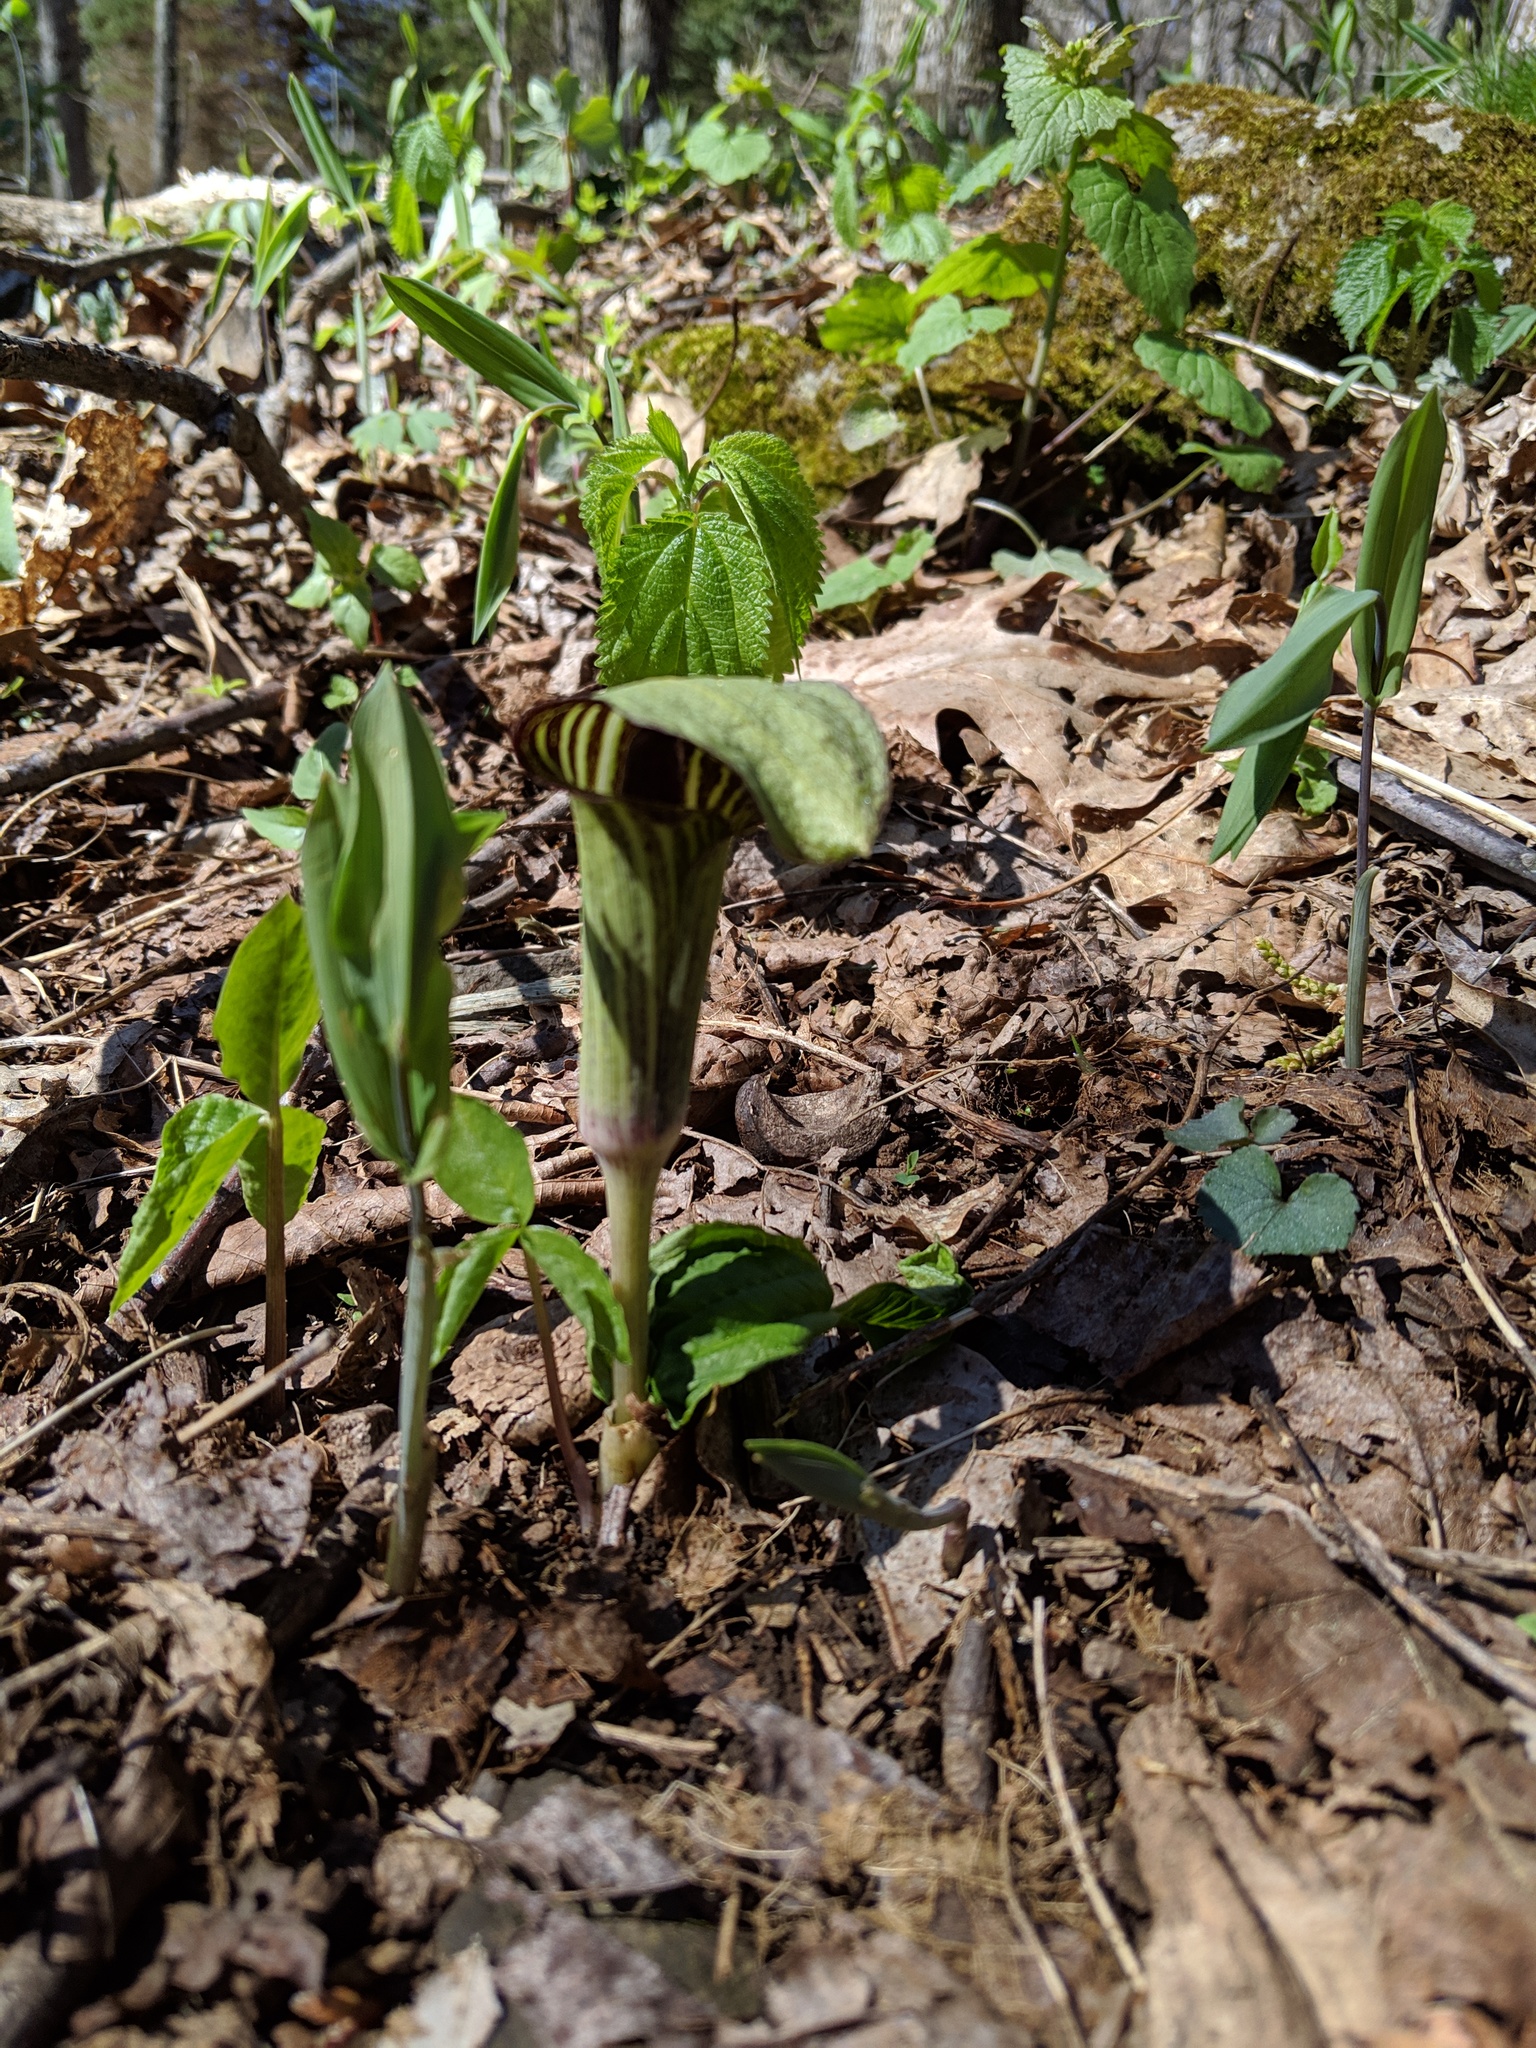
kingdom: Plantae
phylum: Tracheophyta
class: Liliopsida
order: Alismatales
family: Araceae
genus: Arisaema
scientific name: Arisaema triphyllum
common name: Jack-in-the-pulpit
